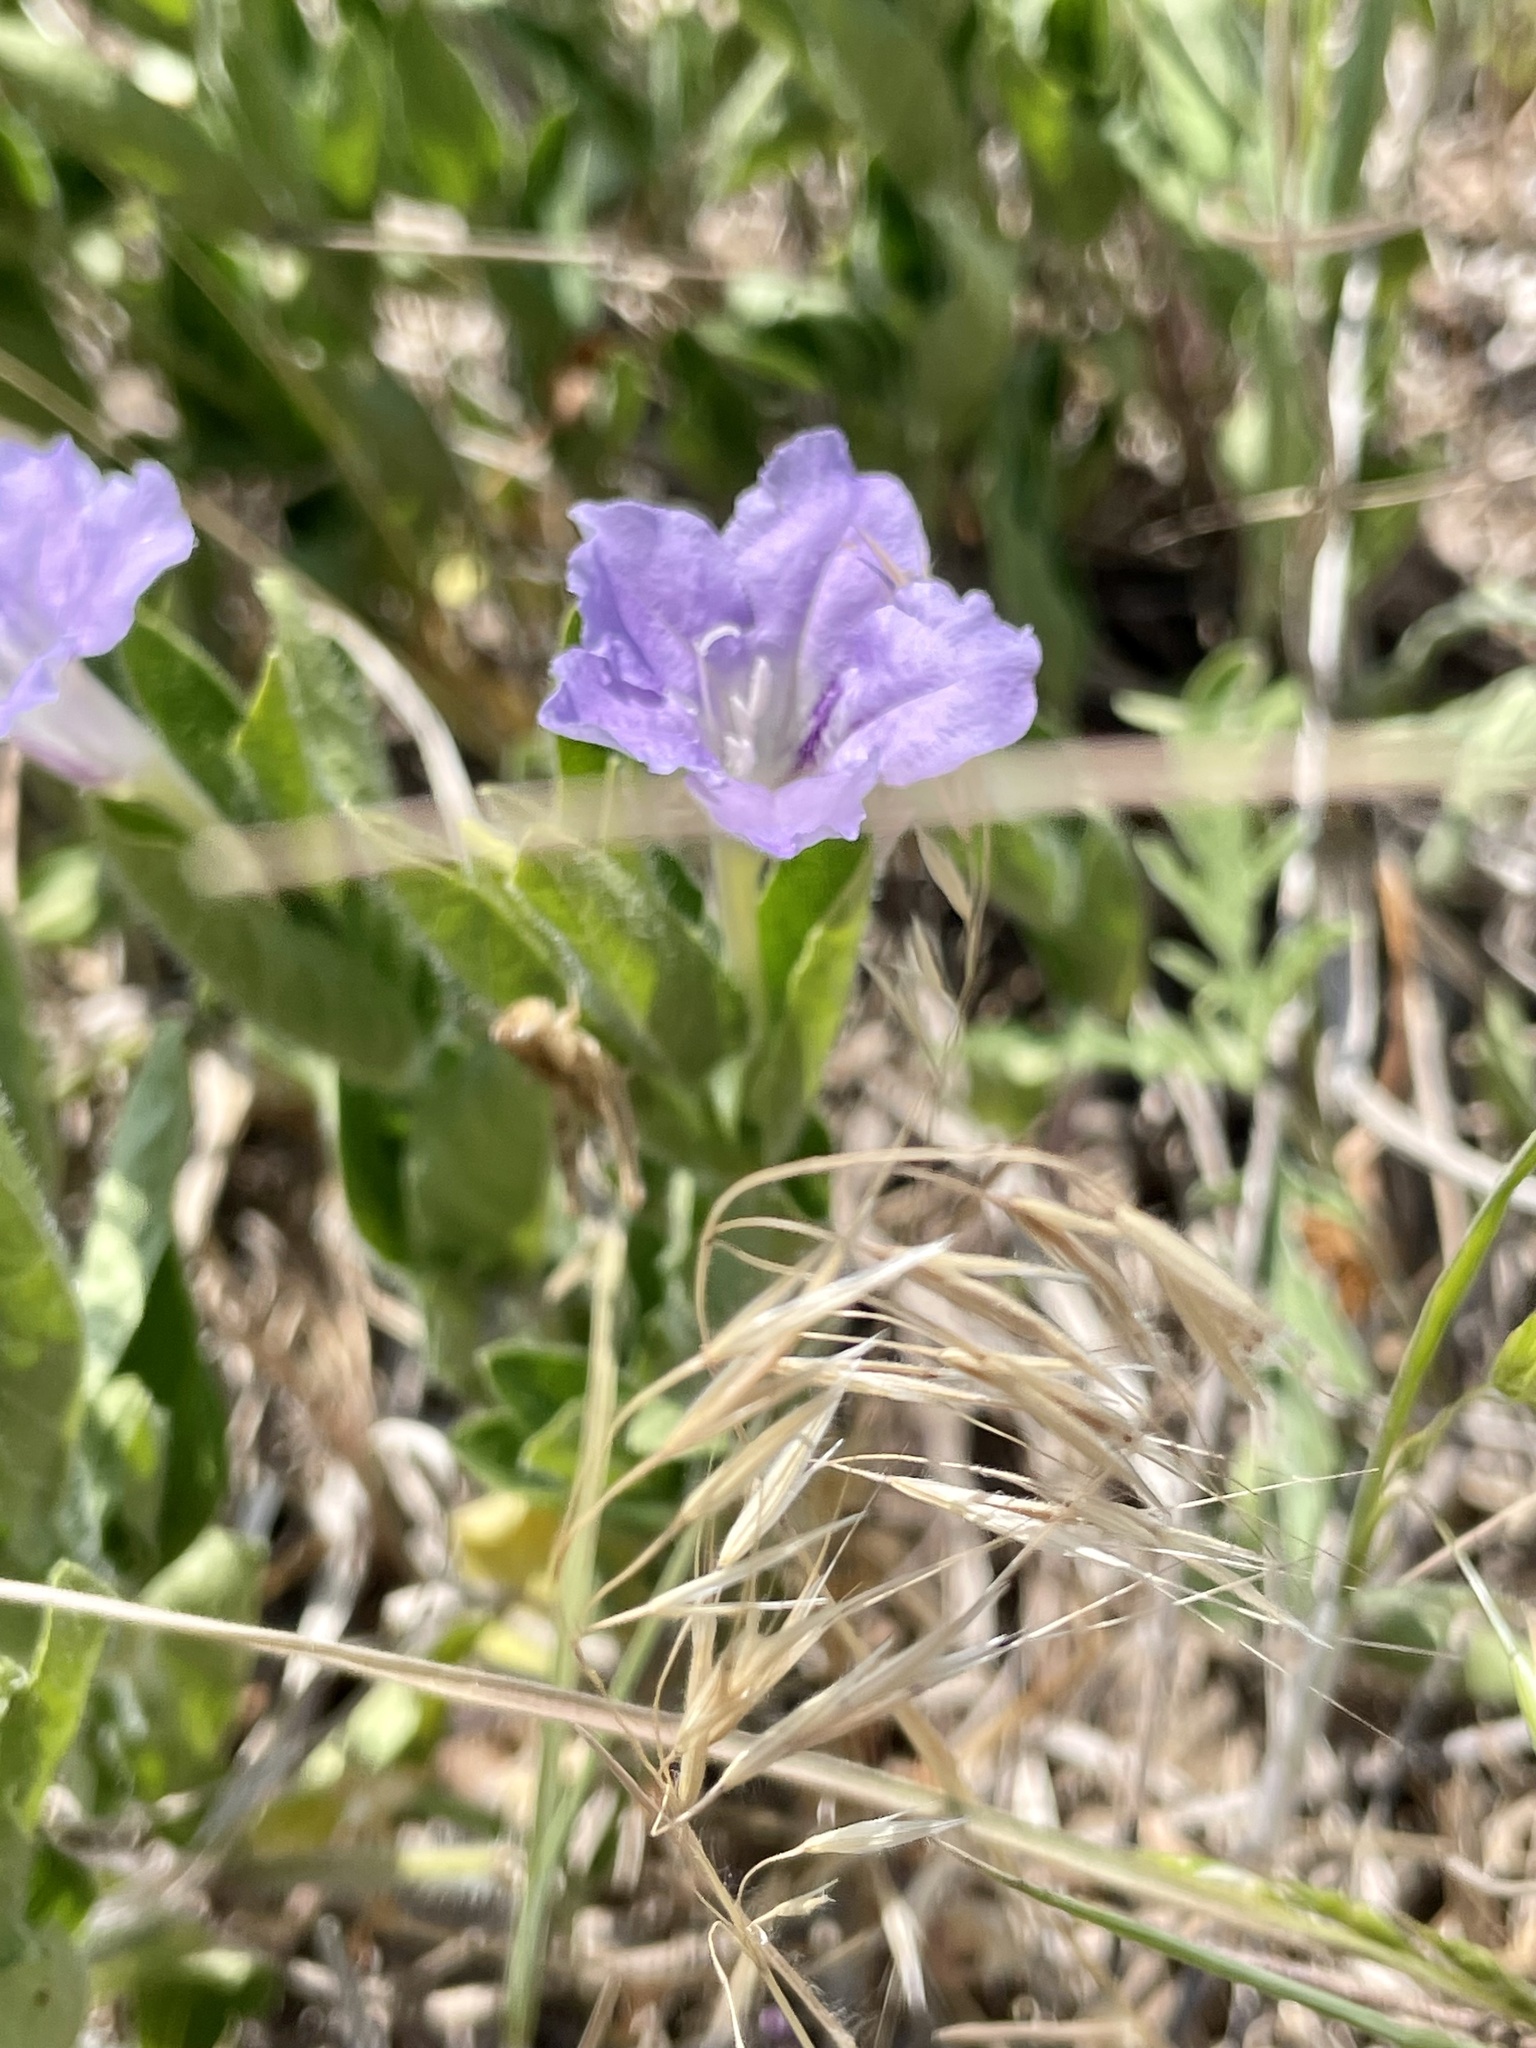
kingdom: Plantae
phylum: Tracheophyta
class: Magnoliopsida
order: Lamiales
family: Acanthaceae
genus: Ruellia
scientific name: Ruellia humilis
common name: Fringe-leaf ruellia
